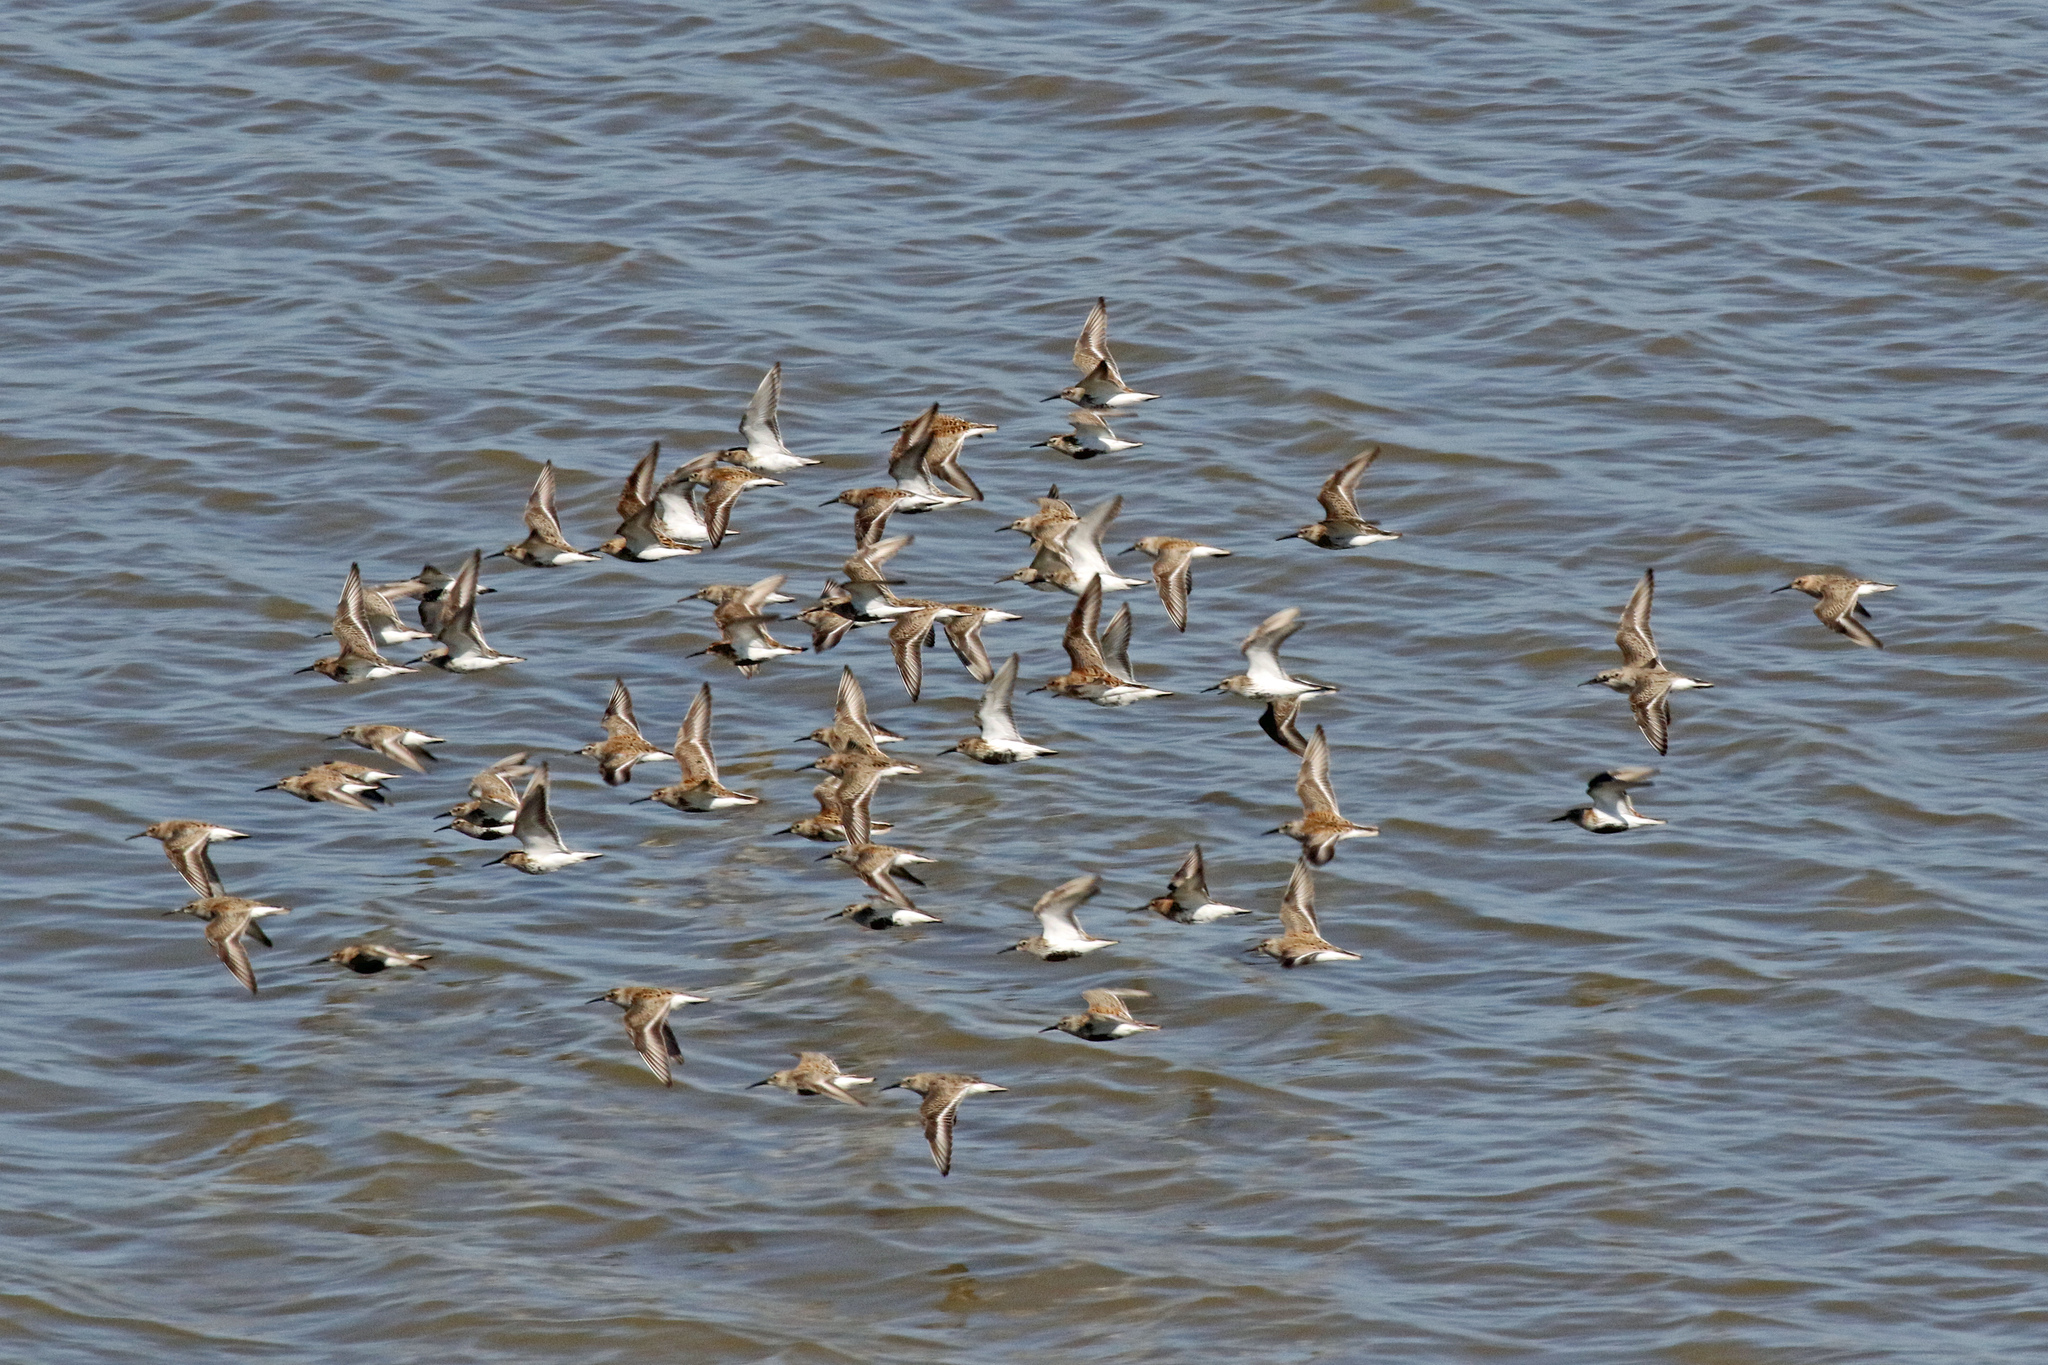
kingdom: Animalia
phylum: Chordata
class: Aves
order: Charadriiformes
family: Scolopacidae
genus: Calidris
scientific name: Calidris alpina
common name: Dunlin
